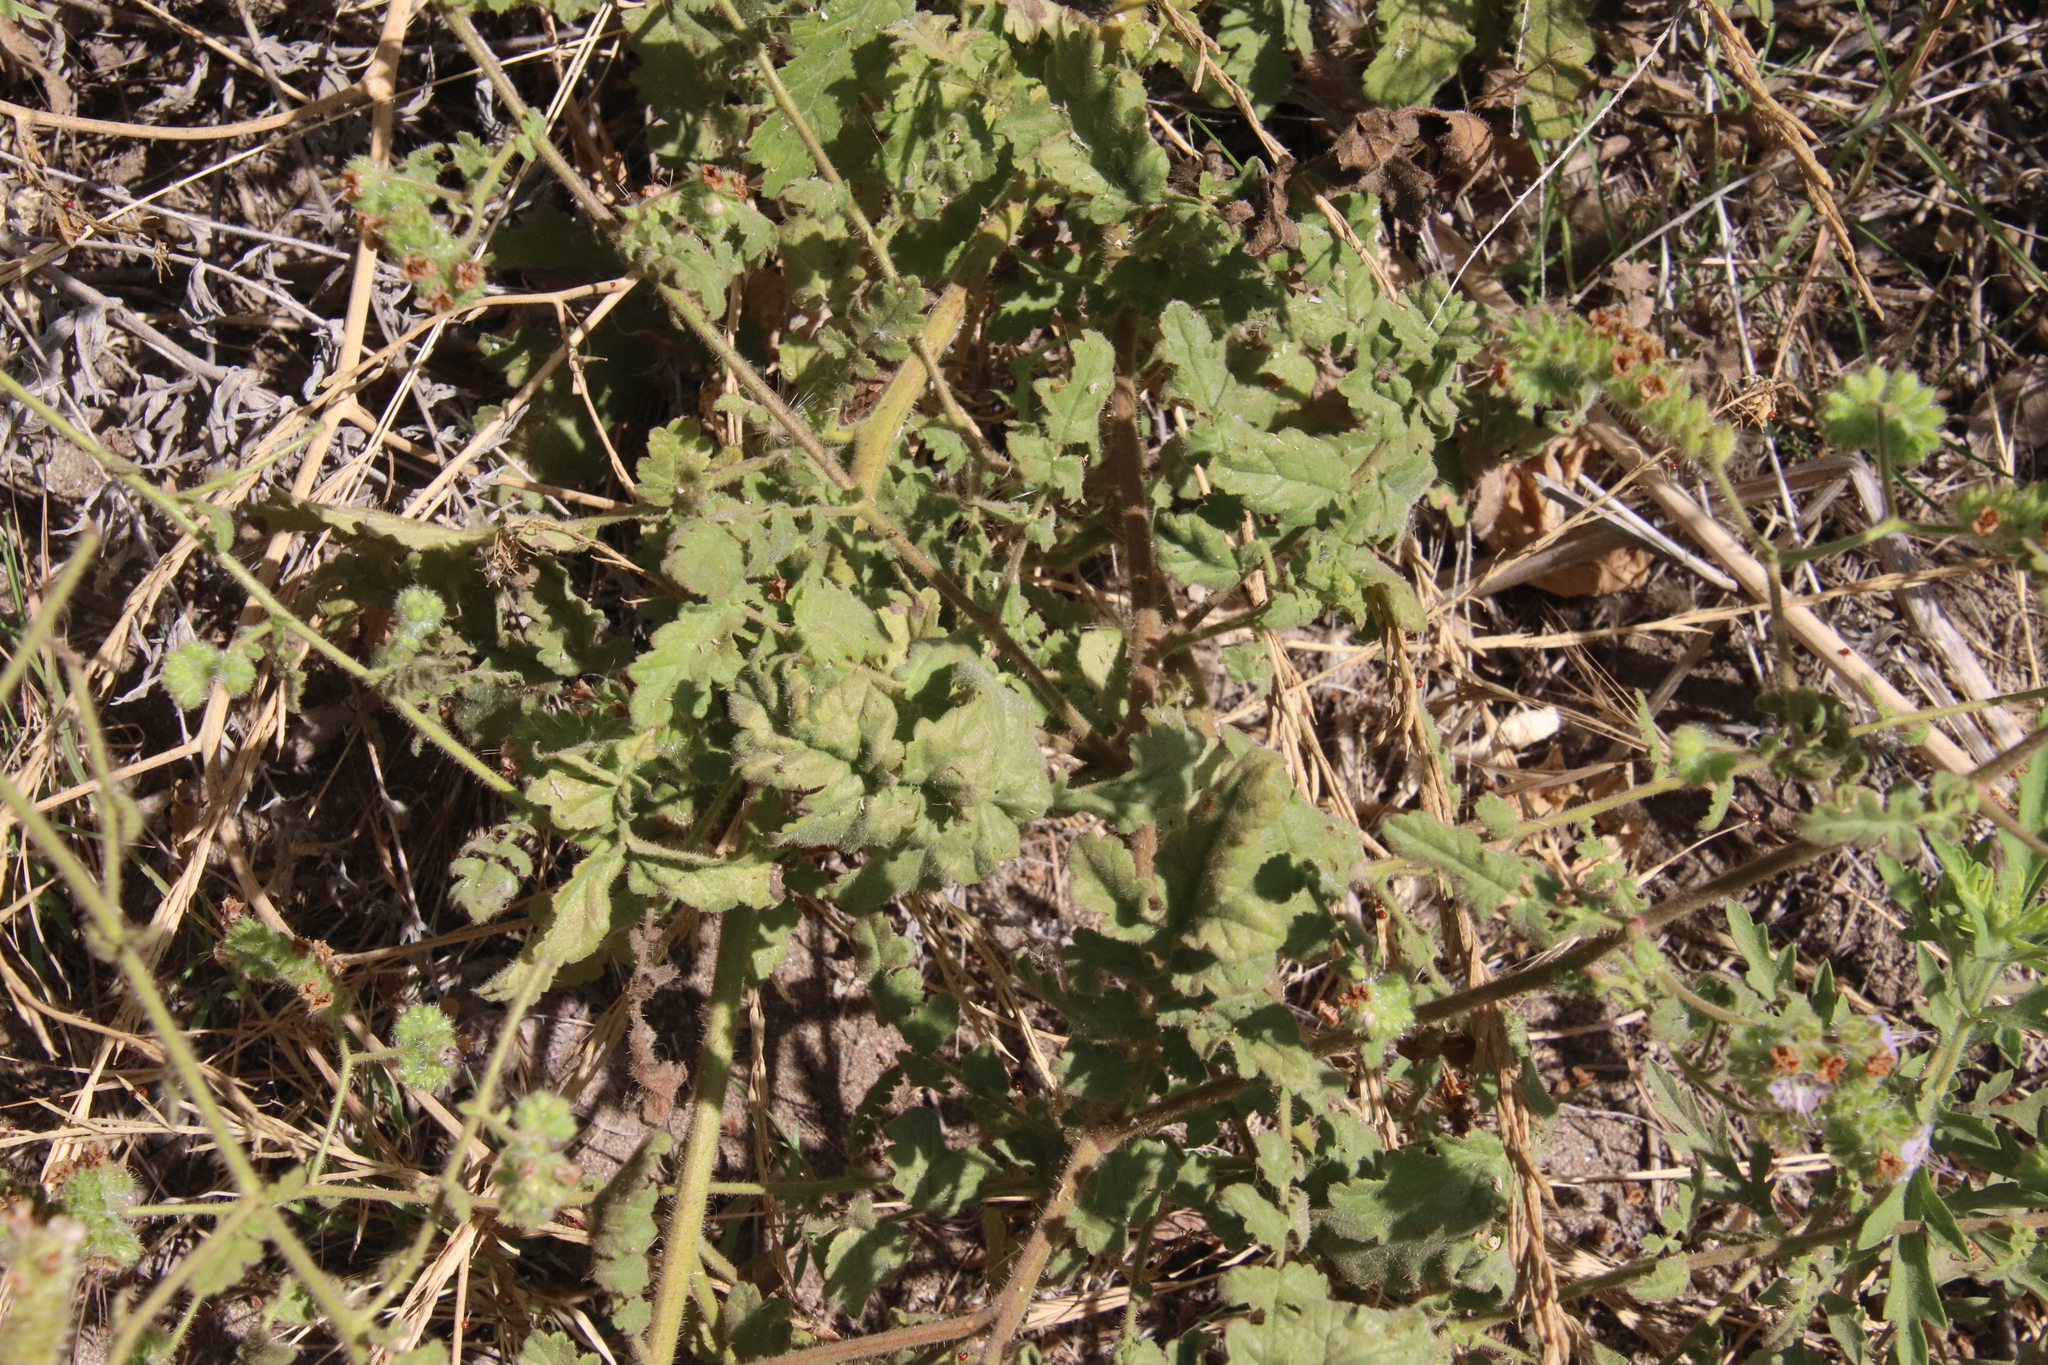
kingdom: Plantae
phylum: Tracheophyta
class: Magnoliopsida
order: Boraginales
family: Hydrophyllaceae
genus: Phacelia
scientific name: Phacelia ramosissima
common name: Branching phacelia
